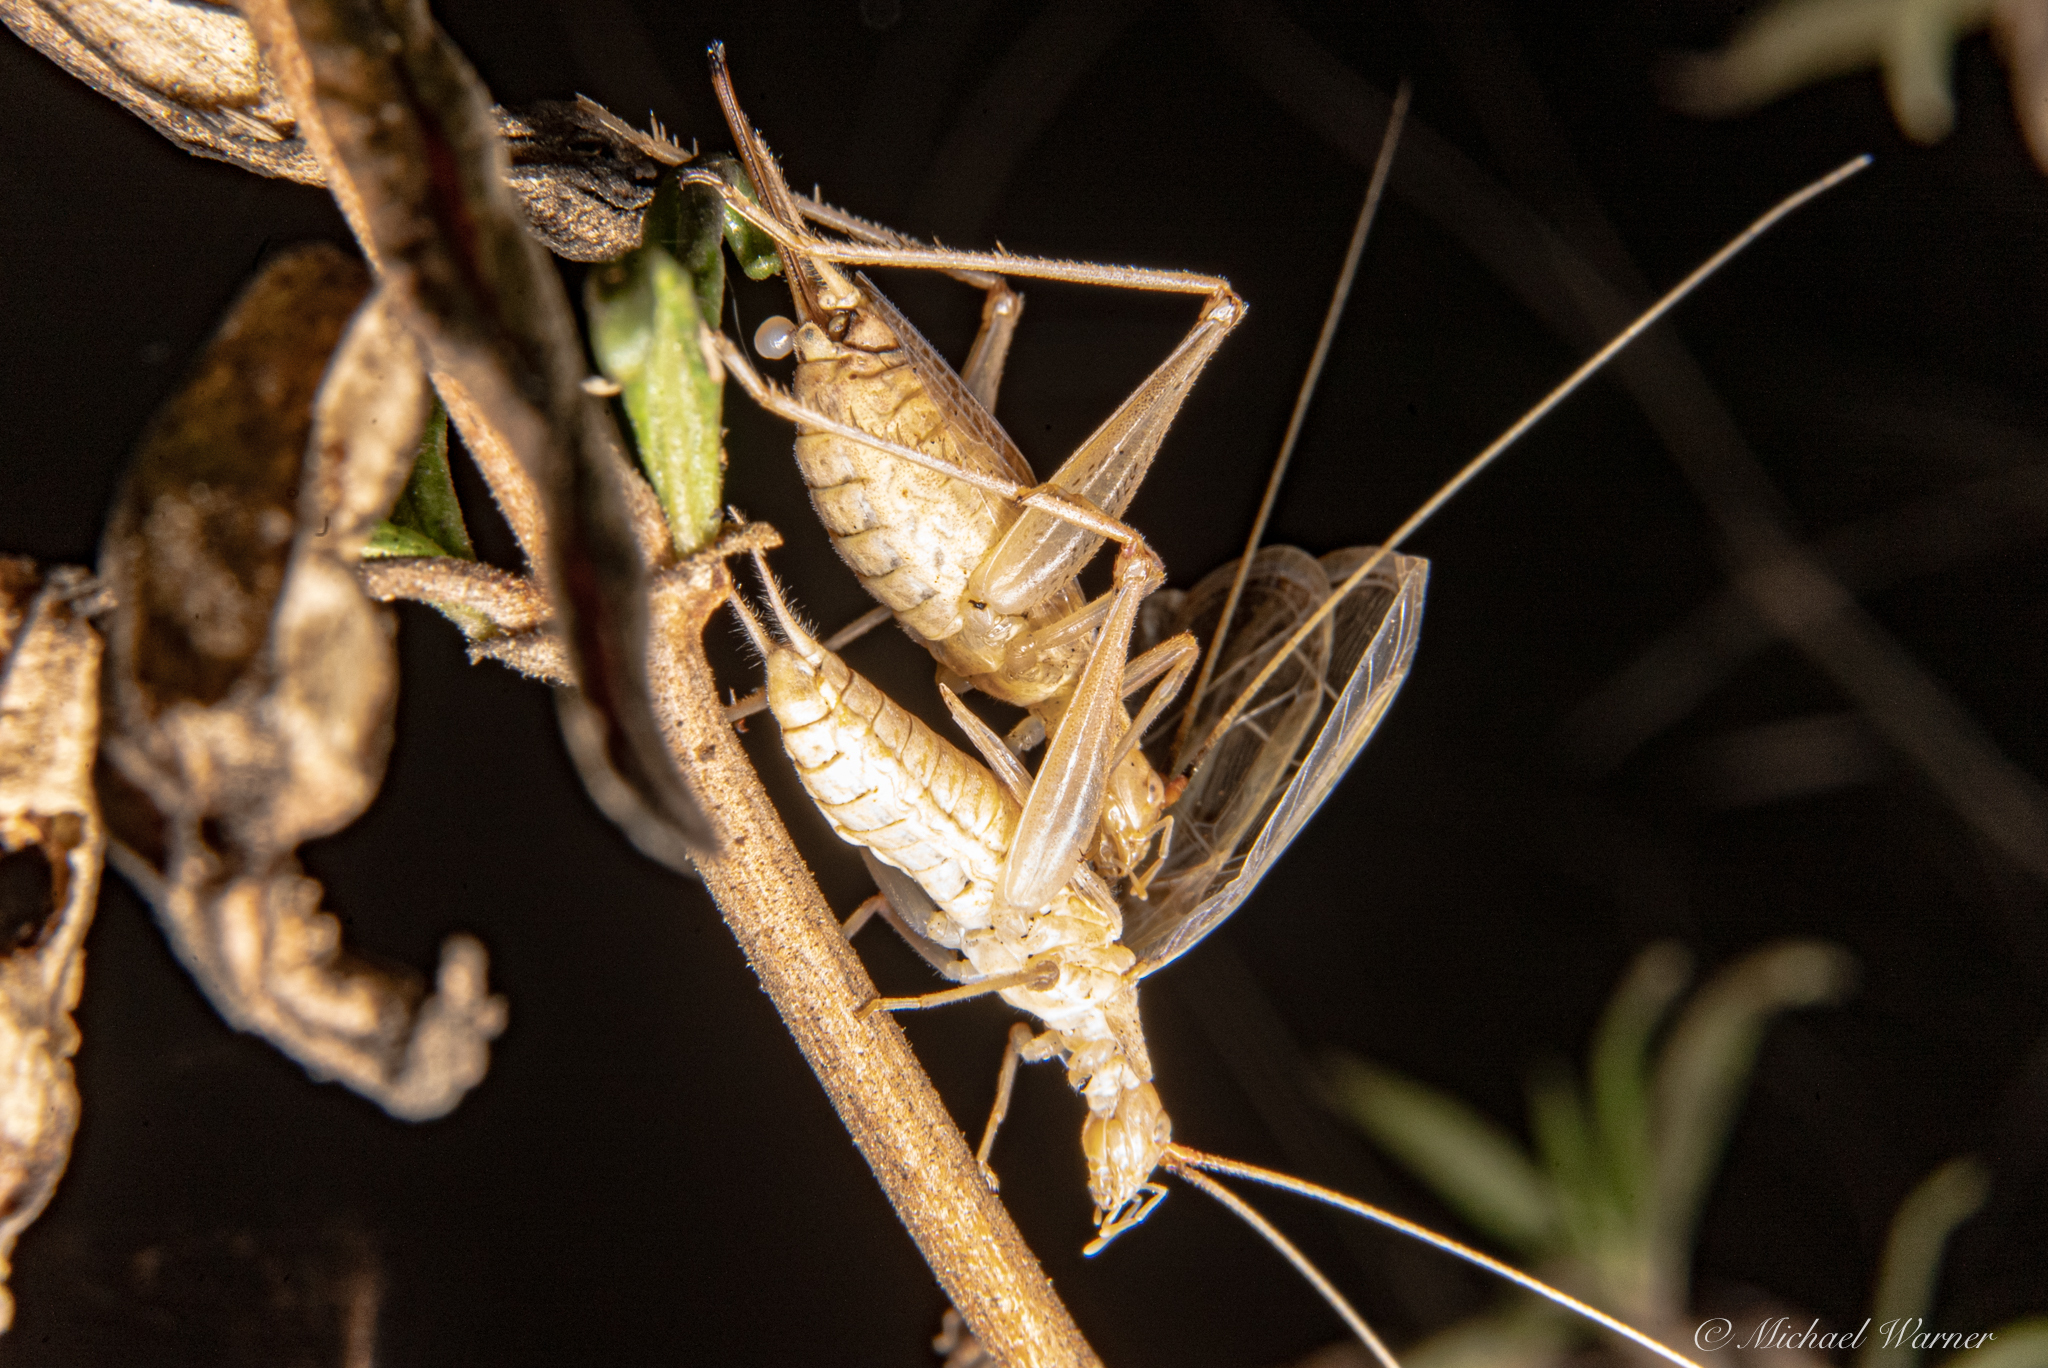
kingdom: Animalia
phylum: Arthropoda
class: Insecta
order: Orthoptera
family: Gryllidae
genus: Oecanthus
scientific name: Oecanthus californicus
